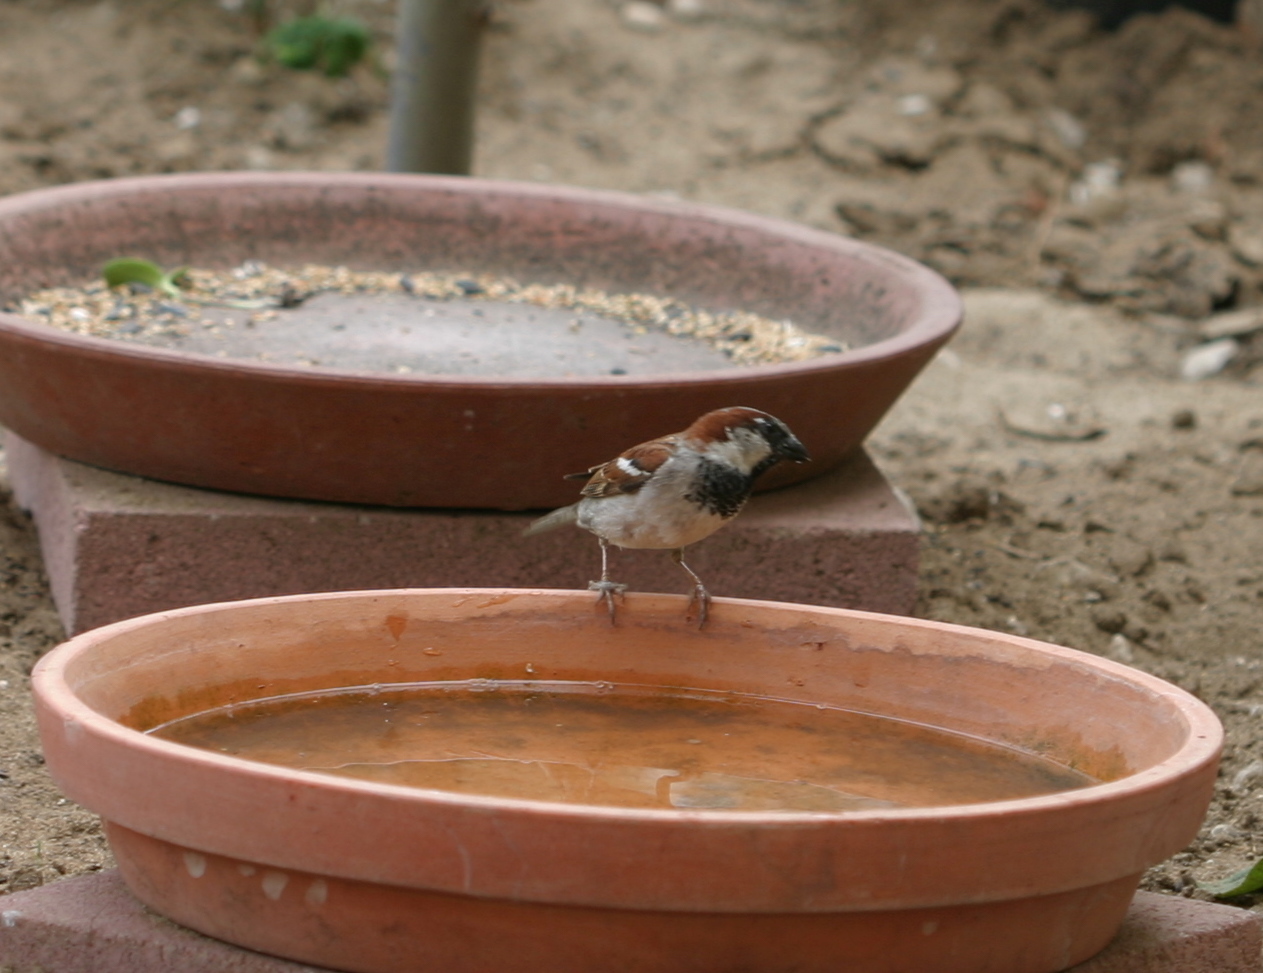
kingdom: Animalia
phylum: Chordata
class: Aves
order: Passeriformes
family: Passeridae
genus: Passer
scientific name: Passer domesticus
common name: House sparrow
